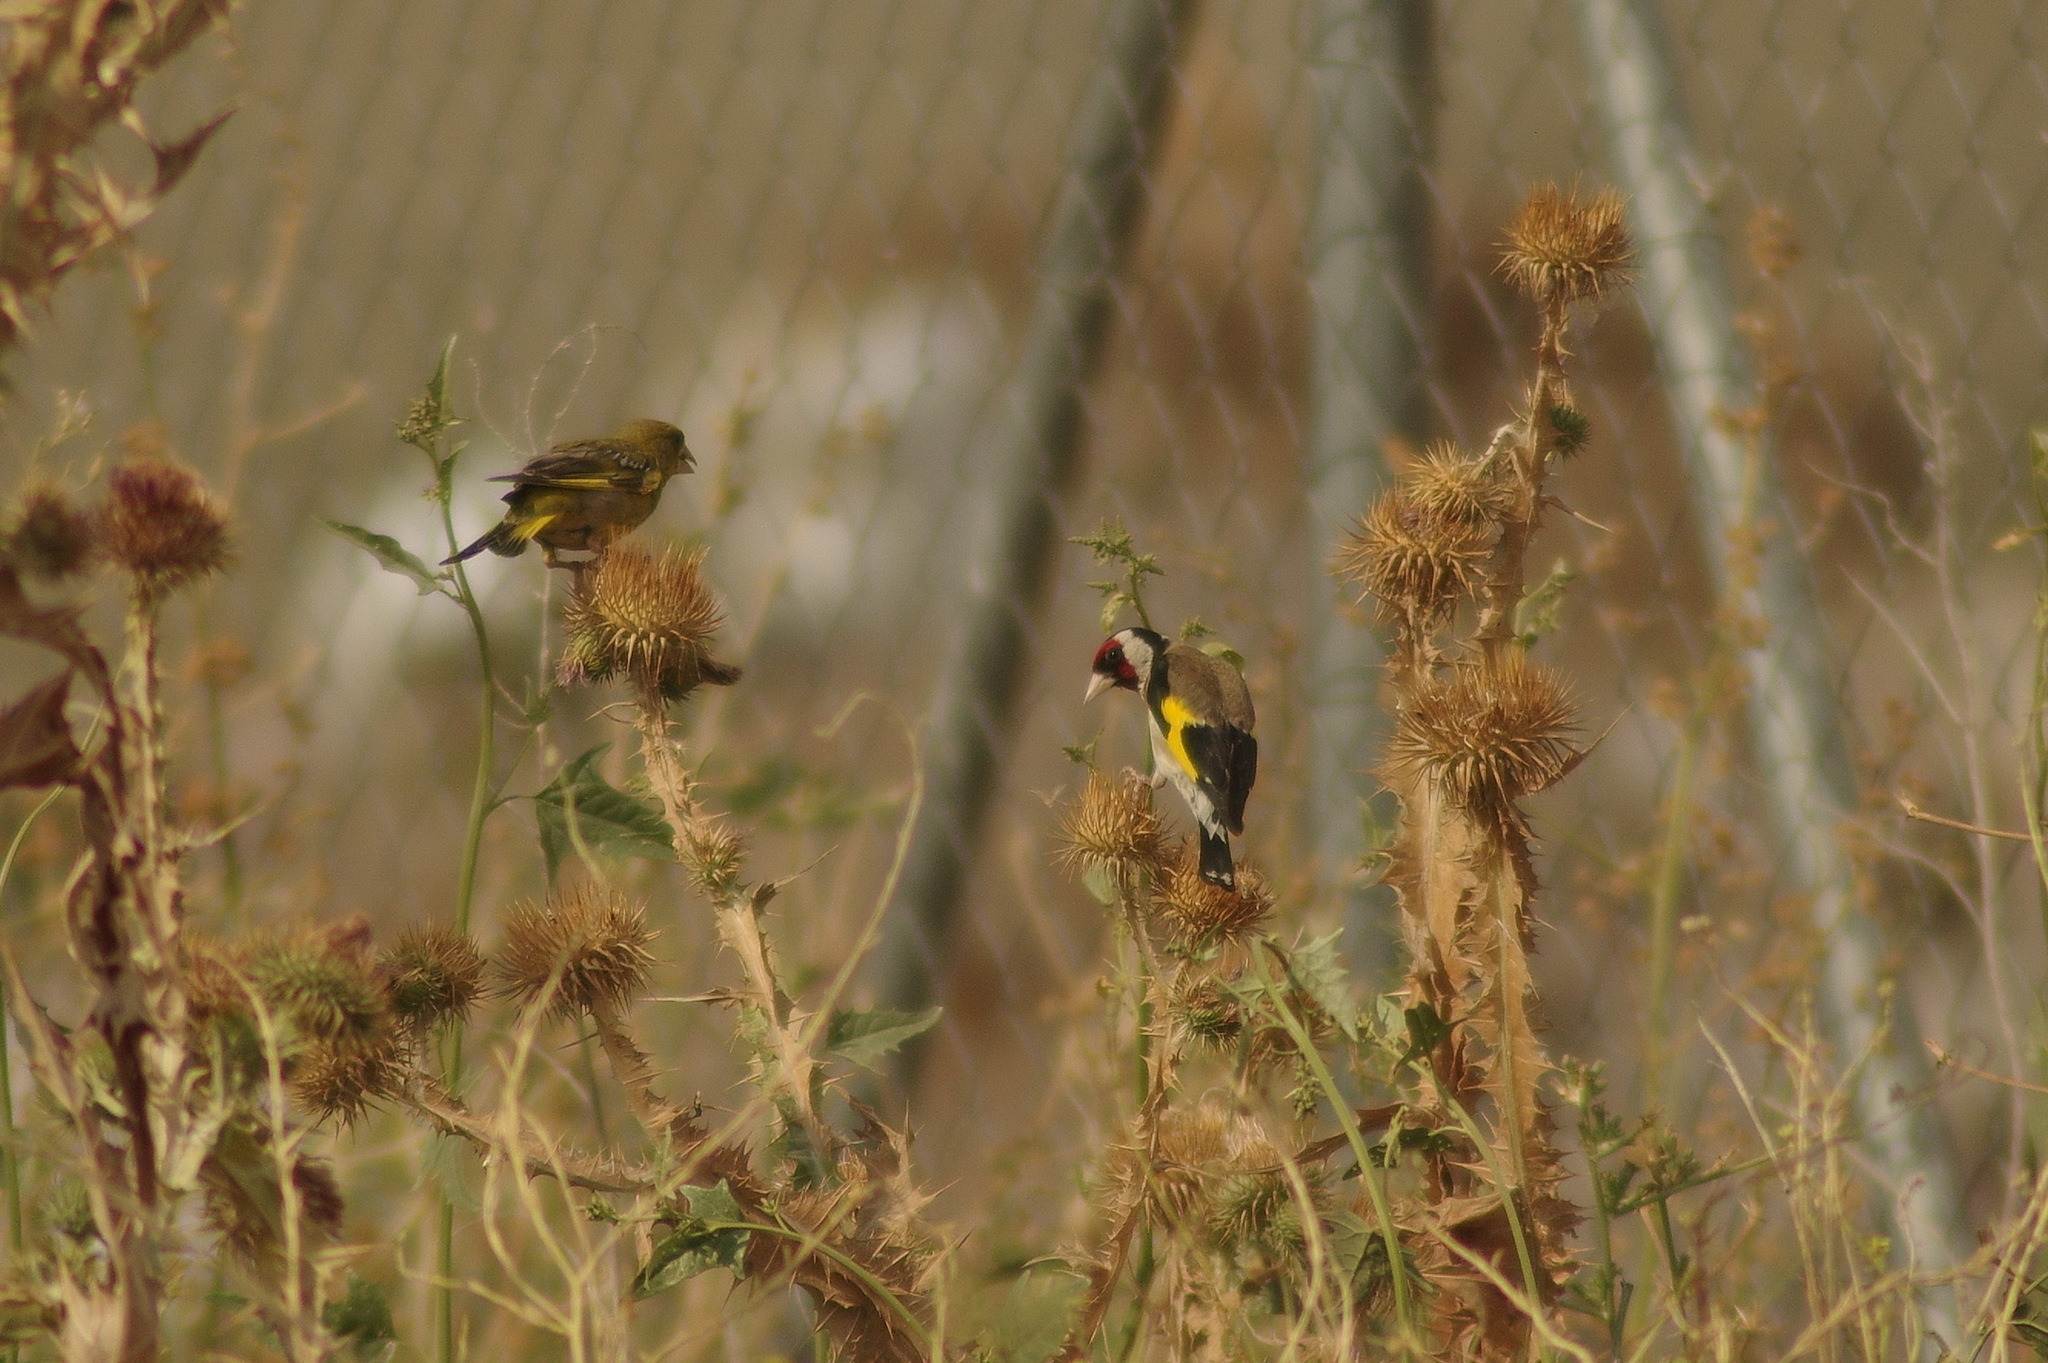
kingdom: Animalia
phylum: Chordata
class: Aves
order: Passeriformes
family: Fringillidae
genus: Carduelis
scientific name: Carduelis carduelis
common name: European goldfinch
